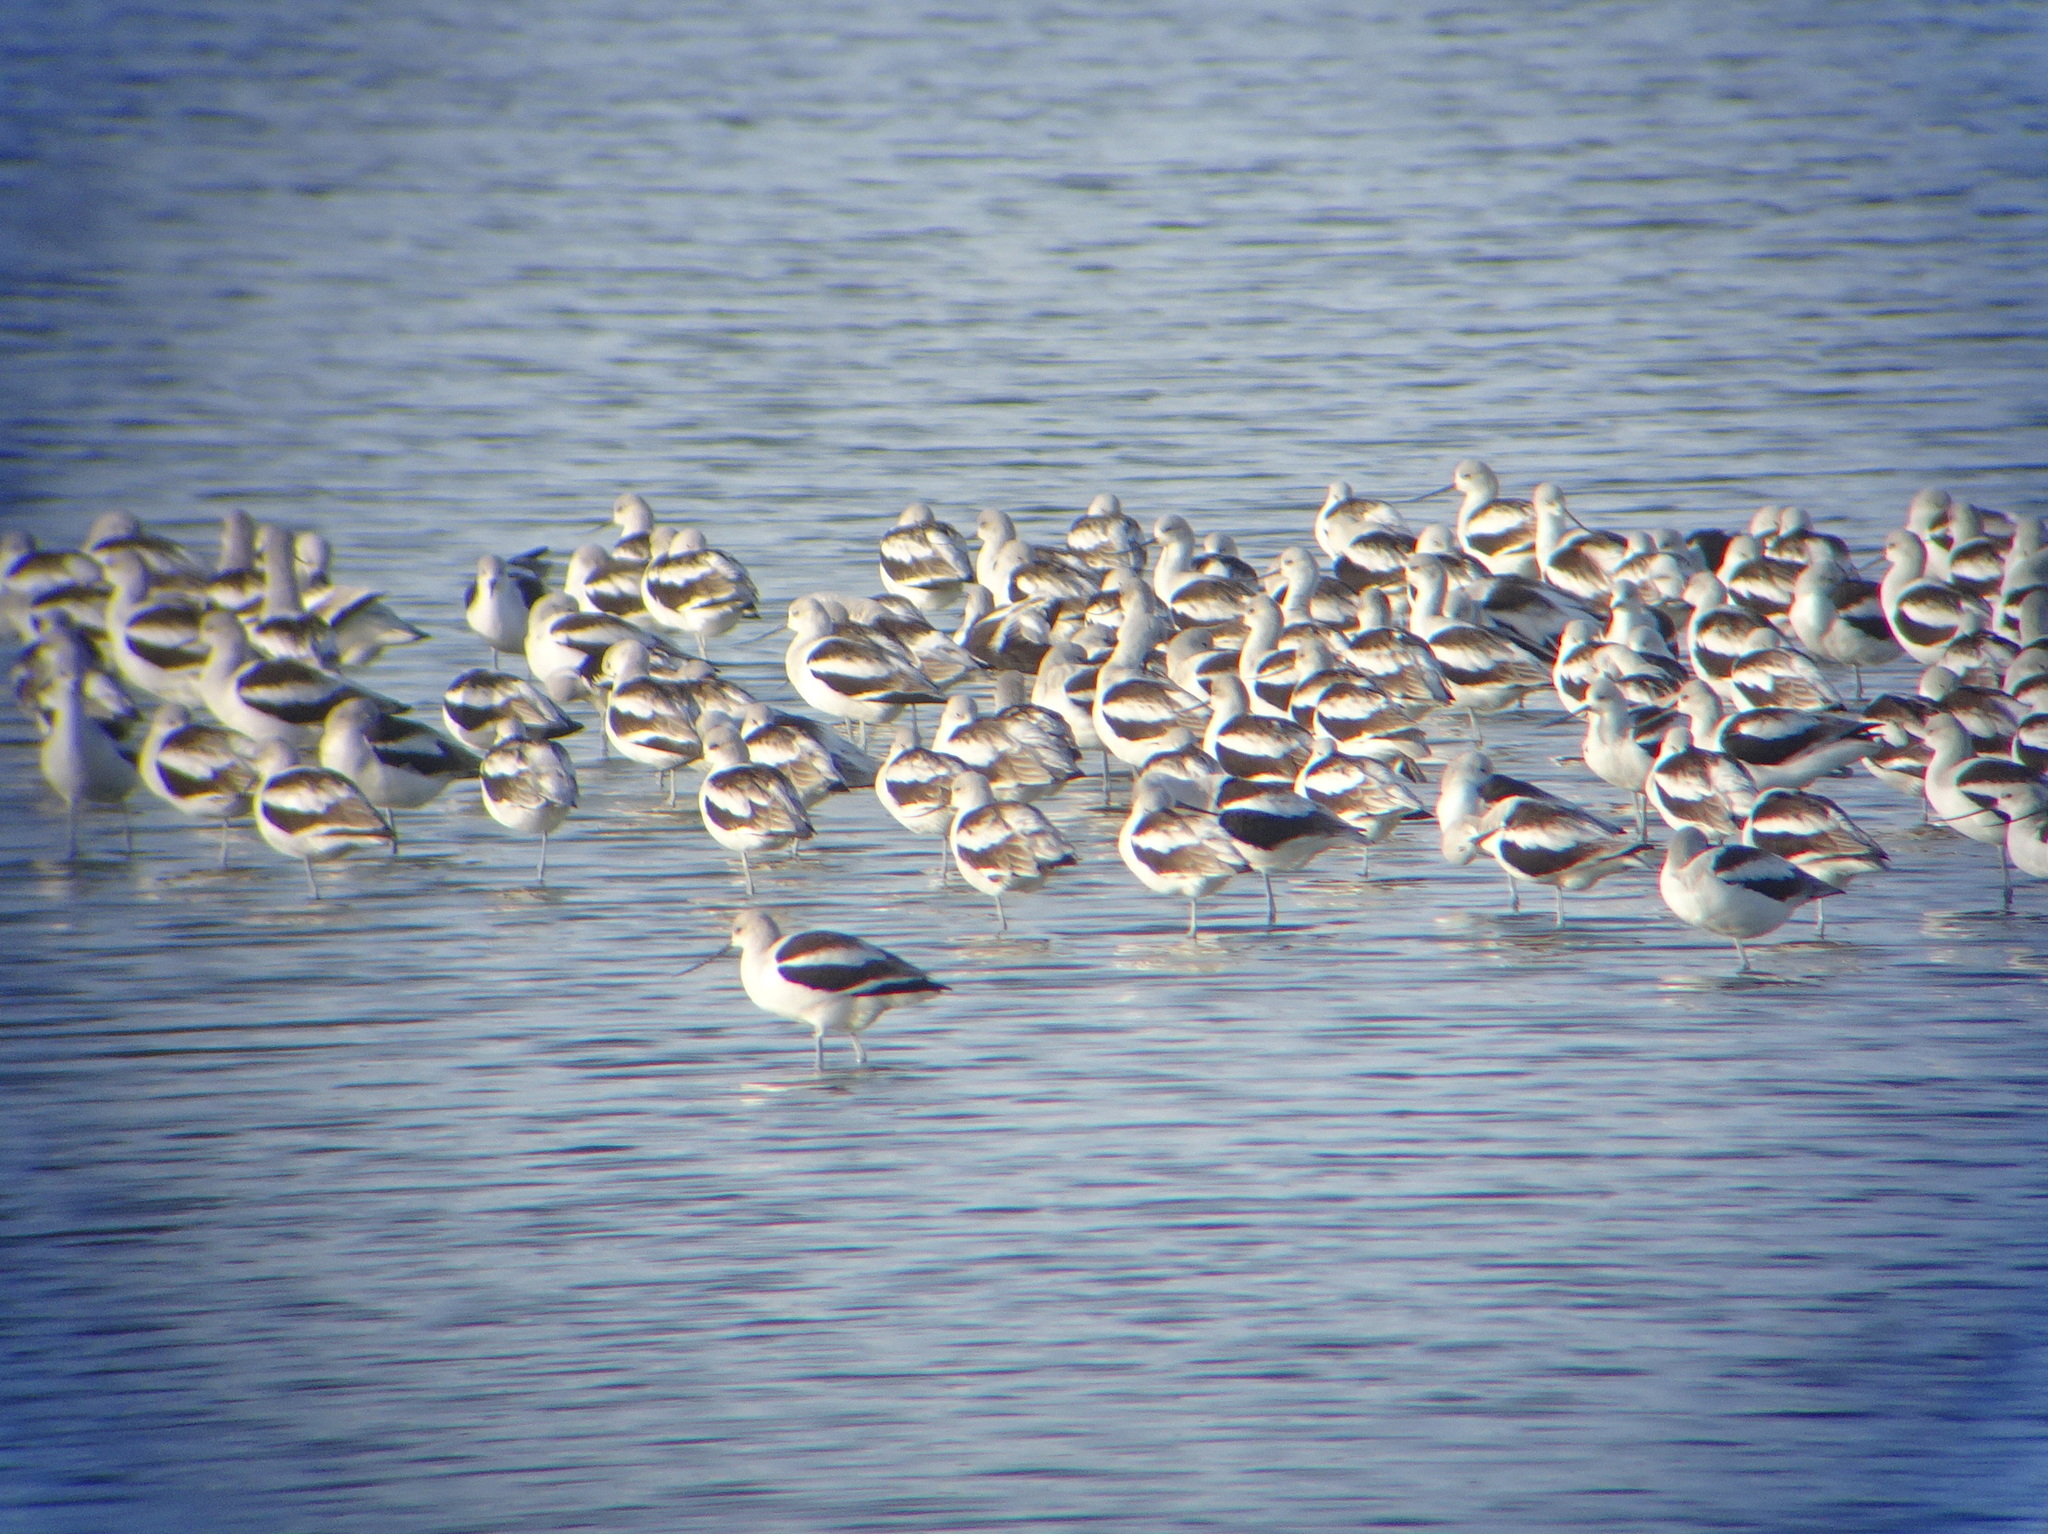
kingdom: Animalia
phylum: Chordata
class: Aves
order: Charadriiformes
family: Recurvirostridae
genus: Recurvirostra
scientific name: Recurvirostra americana
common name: American avocet
